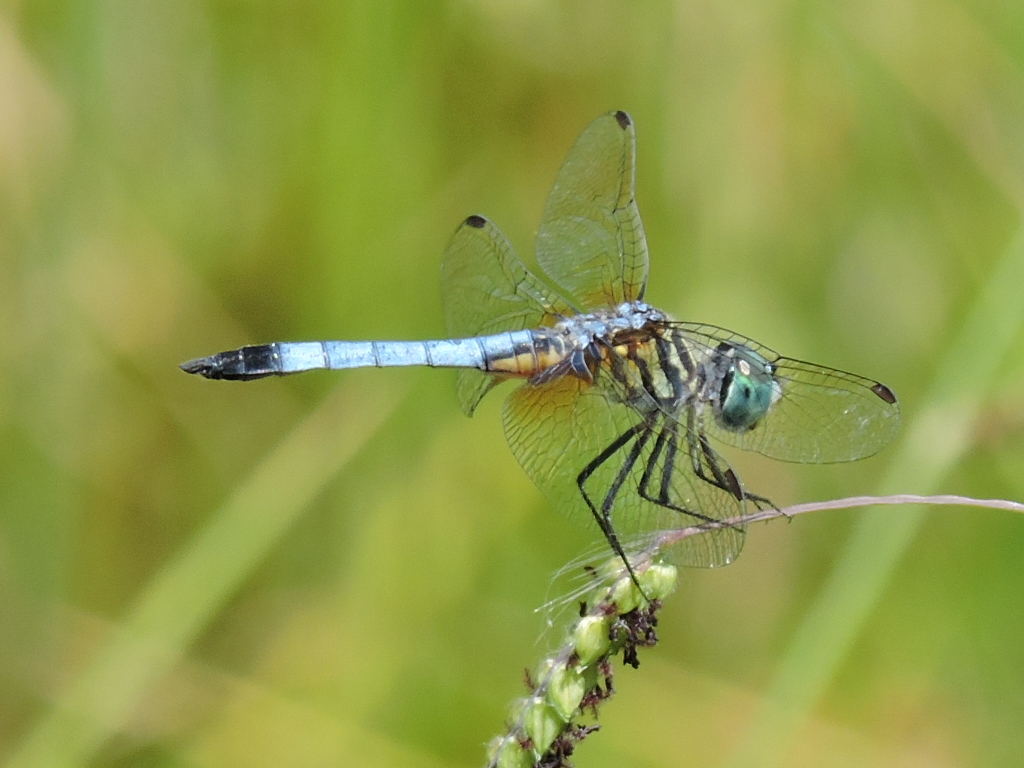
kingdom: Animalia
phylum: Arthropoda
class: Insecta
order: Odonata
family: Libellulidae
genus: Pachydiplax
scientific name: Pachydiplax longipennis
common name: Blue dasher
